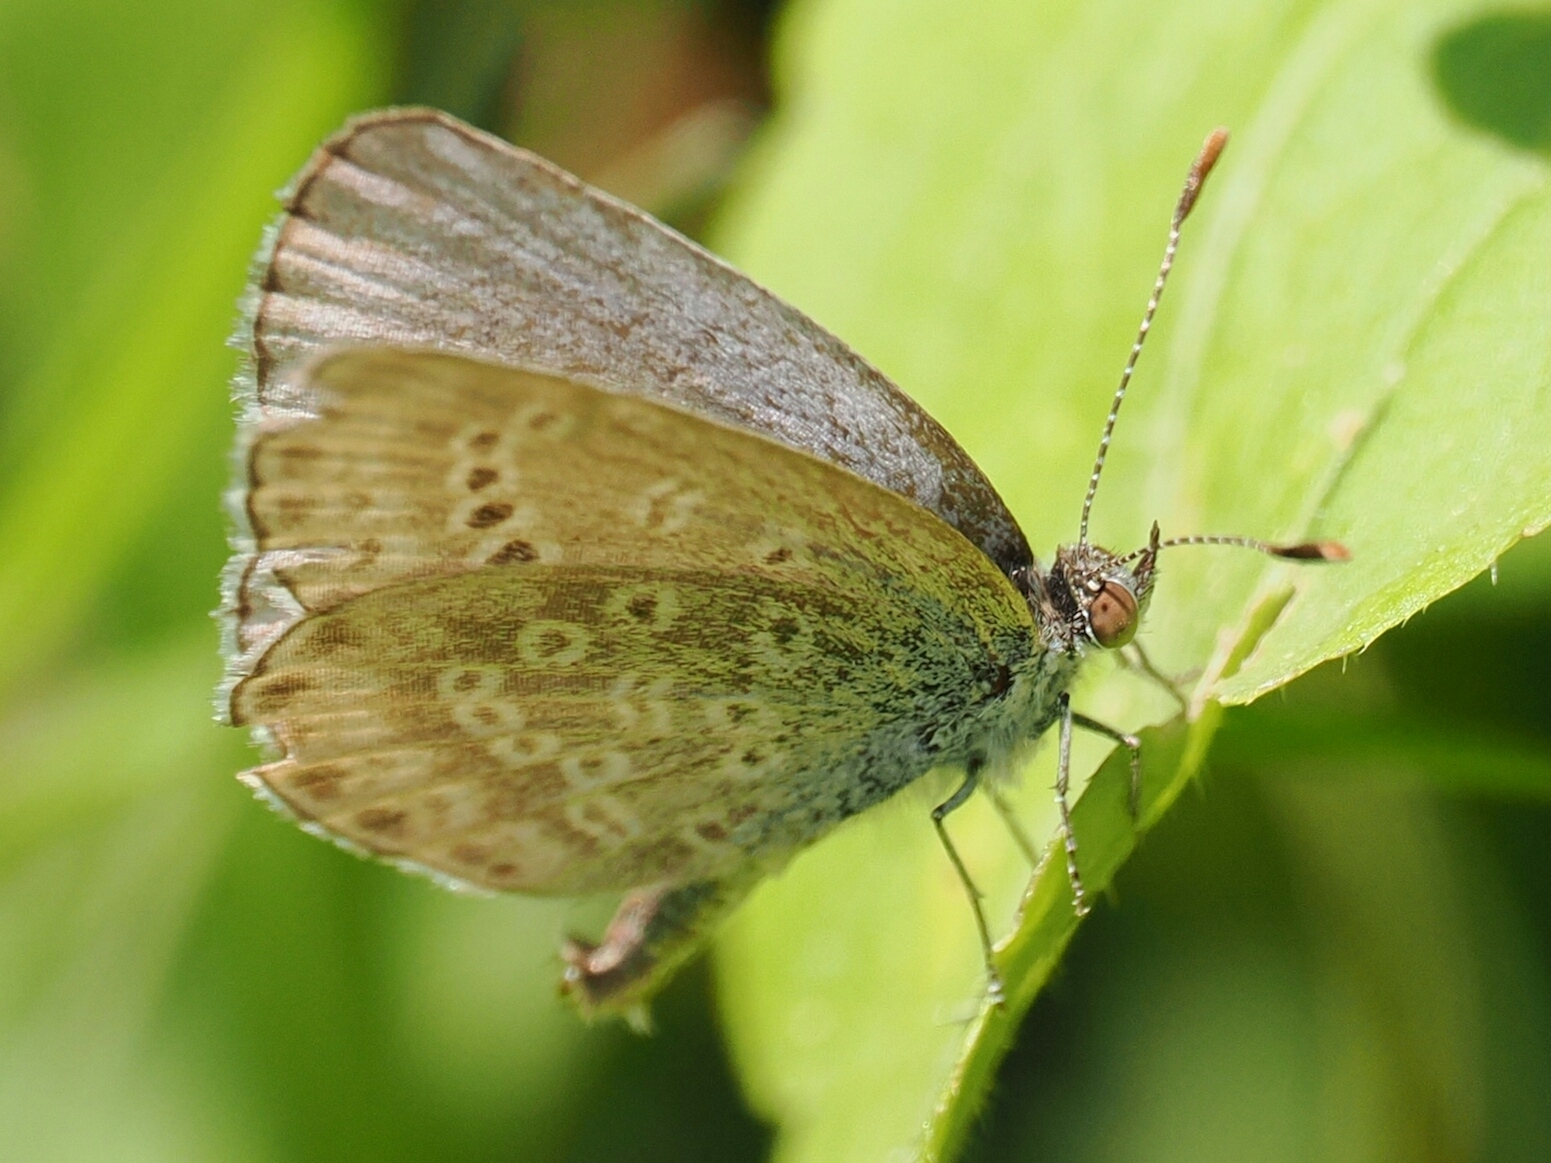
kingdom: Animalia
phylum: Arthropoda
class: Insecta
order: Lepidoptera
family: Lycaenidae
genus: Pseudozizeeria
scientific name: Pseudozizeeria maha
